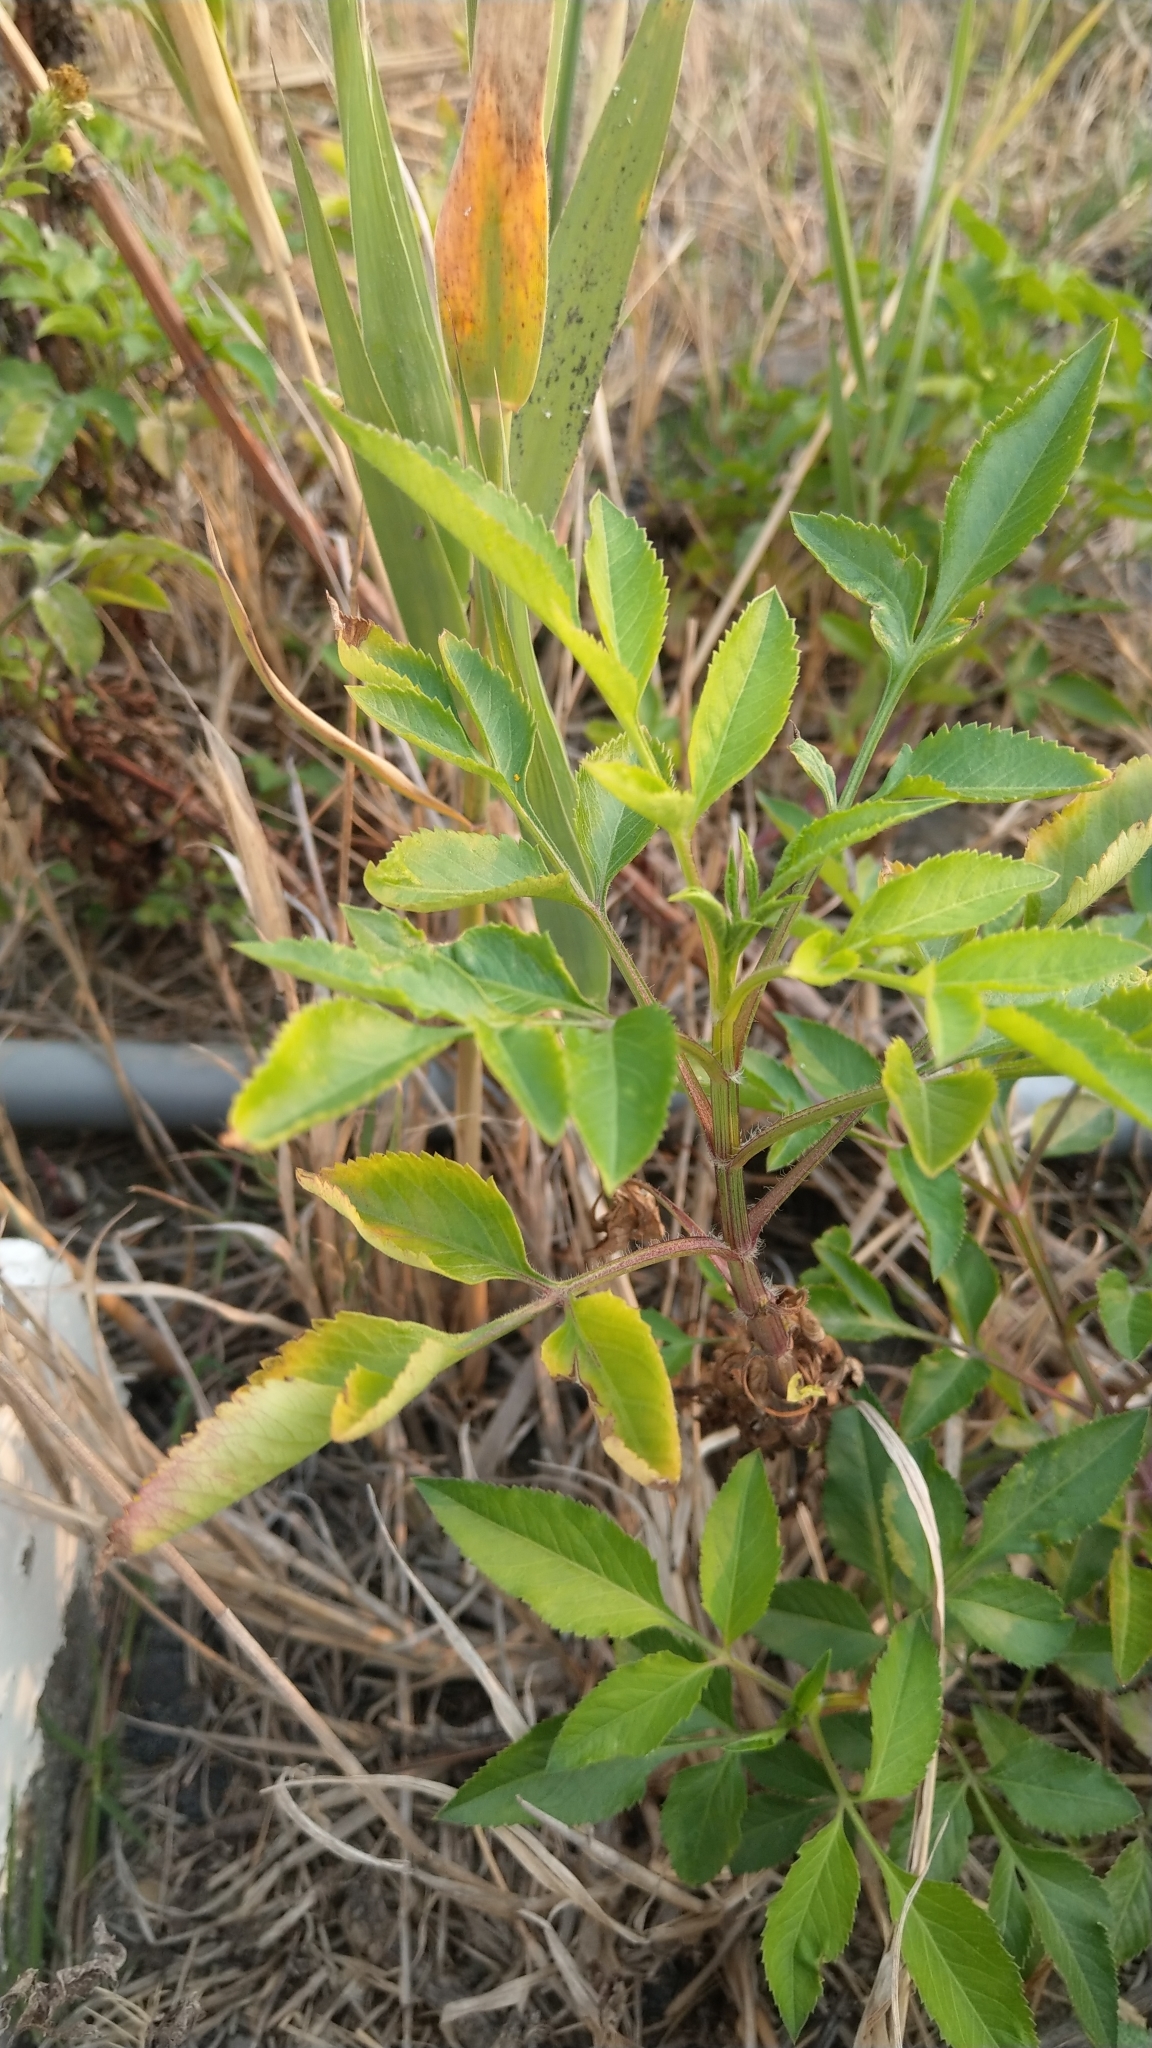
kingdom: Plantae
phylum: Tracheophyta
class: Magnoliopsida
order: Asterales
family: Asteraceae
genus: Bidens
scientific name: Bidens alba
